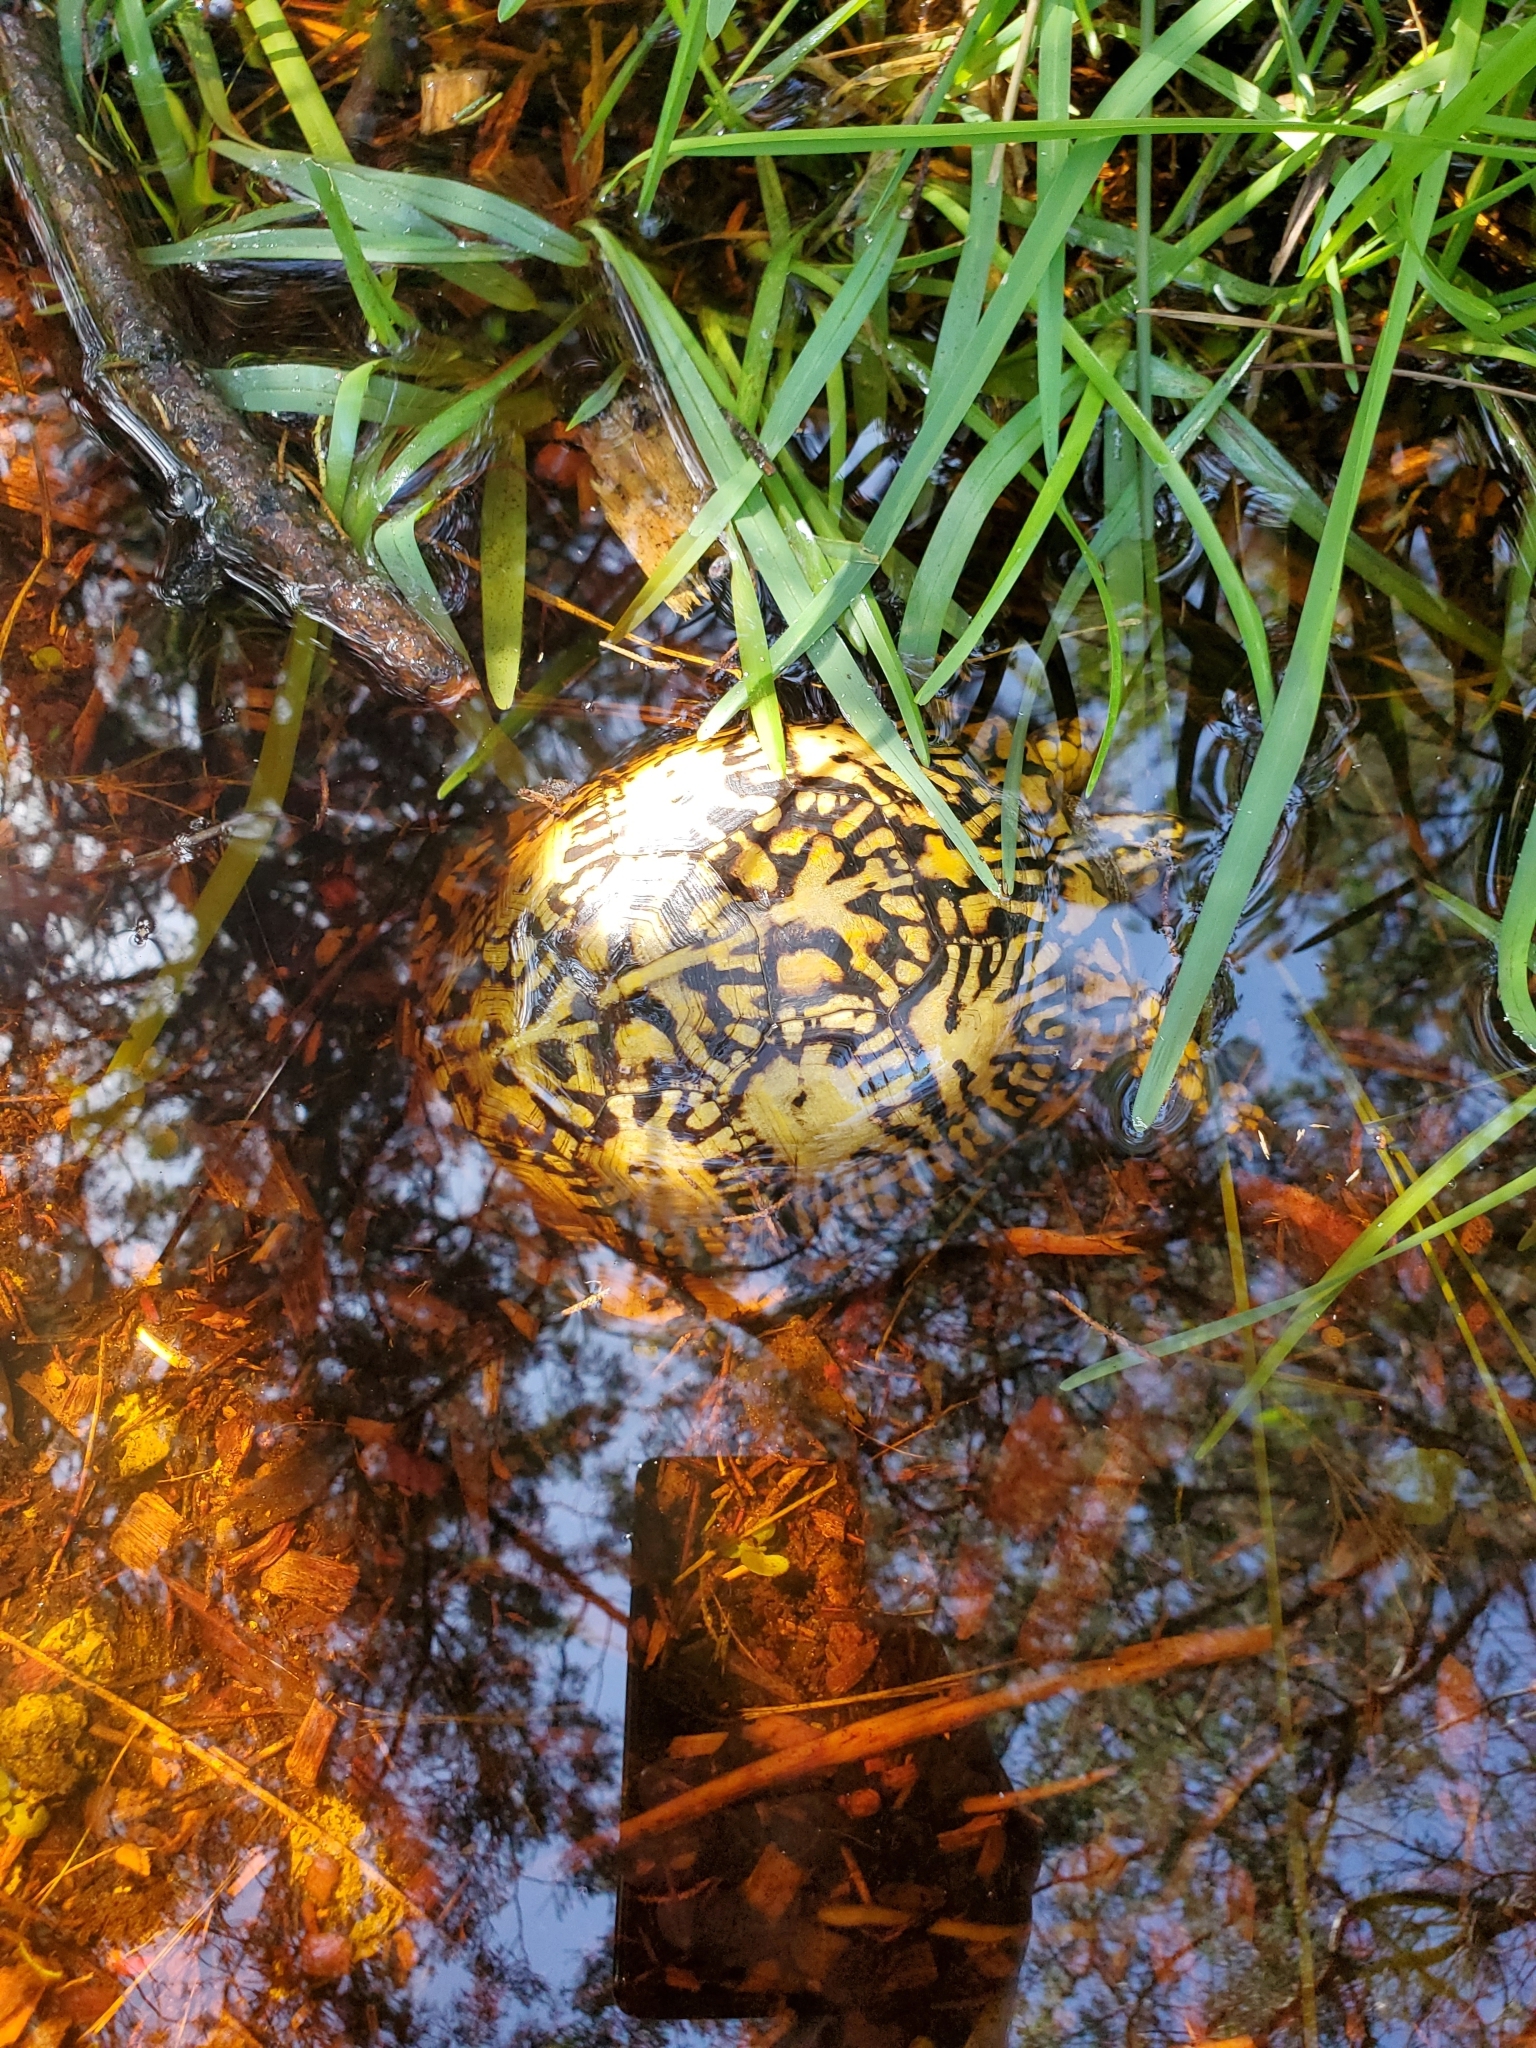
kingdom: Animalia
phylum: Chordata
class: Testudines
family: Emydidae
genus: Terrapene
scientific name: Terrapene carolina
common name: Common box turtle
